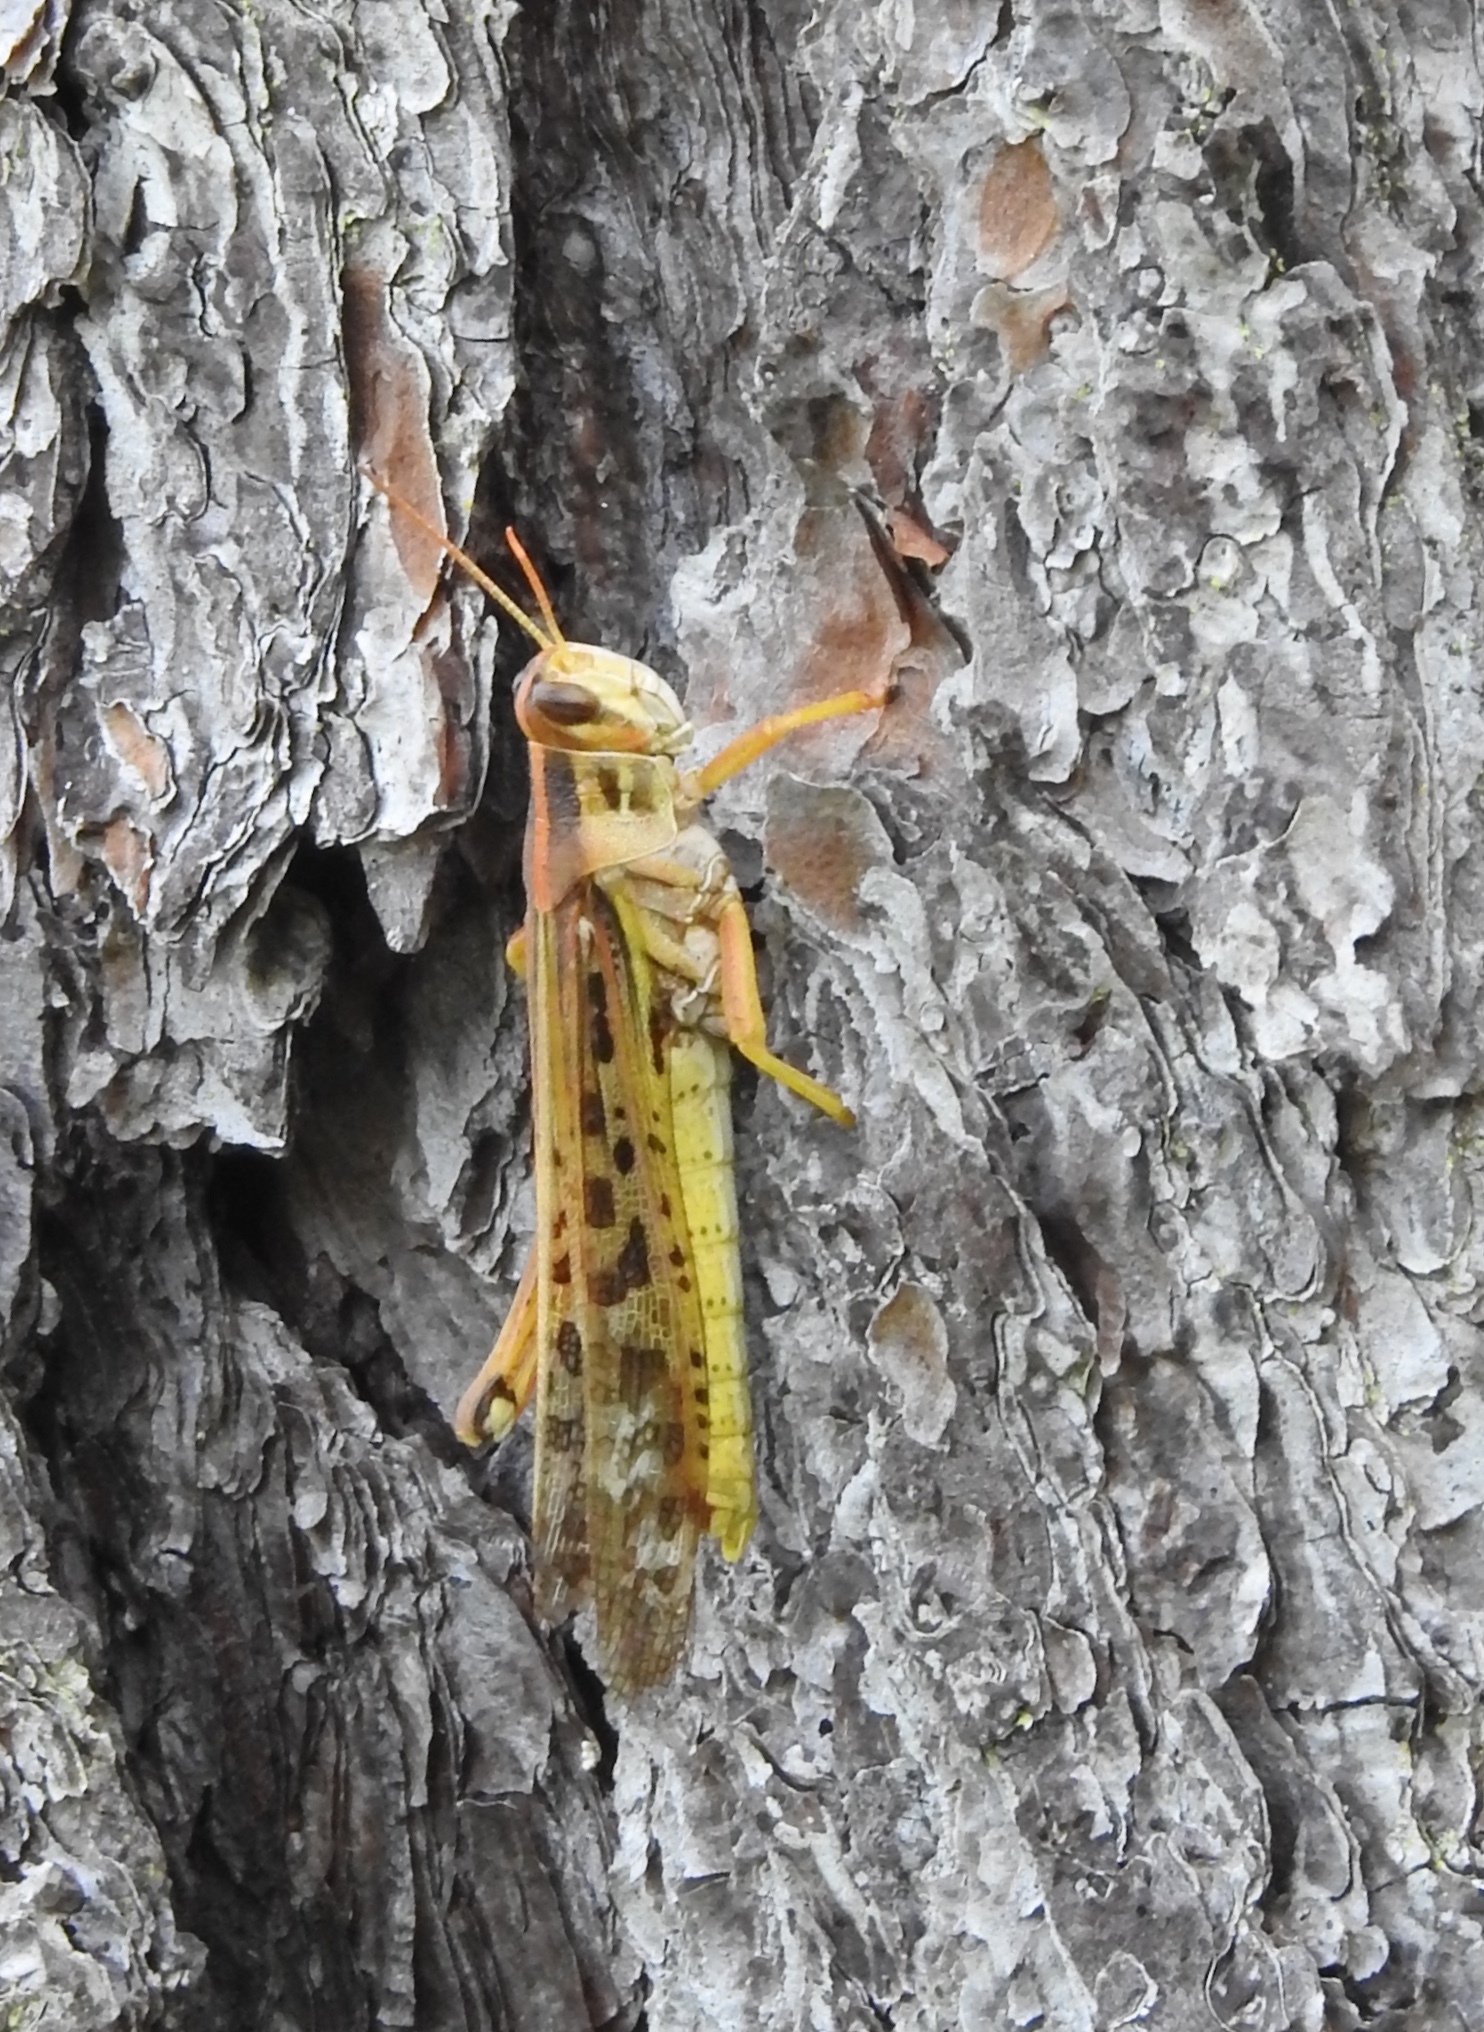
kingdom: Animalia
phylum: Arthropoda
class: Insecta
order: Orthoptera
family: Acrididae
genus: Schistocerca
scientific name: Schistocerca americana
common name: American bird locust
